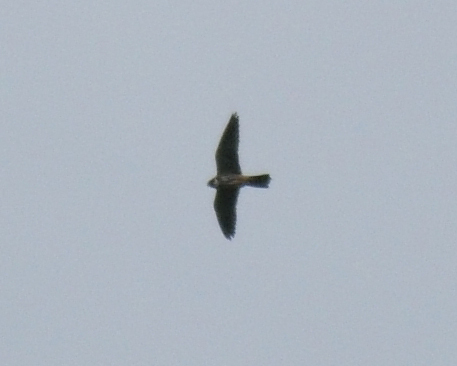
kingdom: Animalia
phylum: Chordata
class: Aves
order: Falconiformes
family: Falconidae
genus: Falco
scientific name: Falco subbuteo
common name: Eurasian hobby
